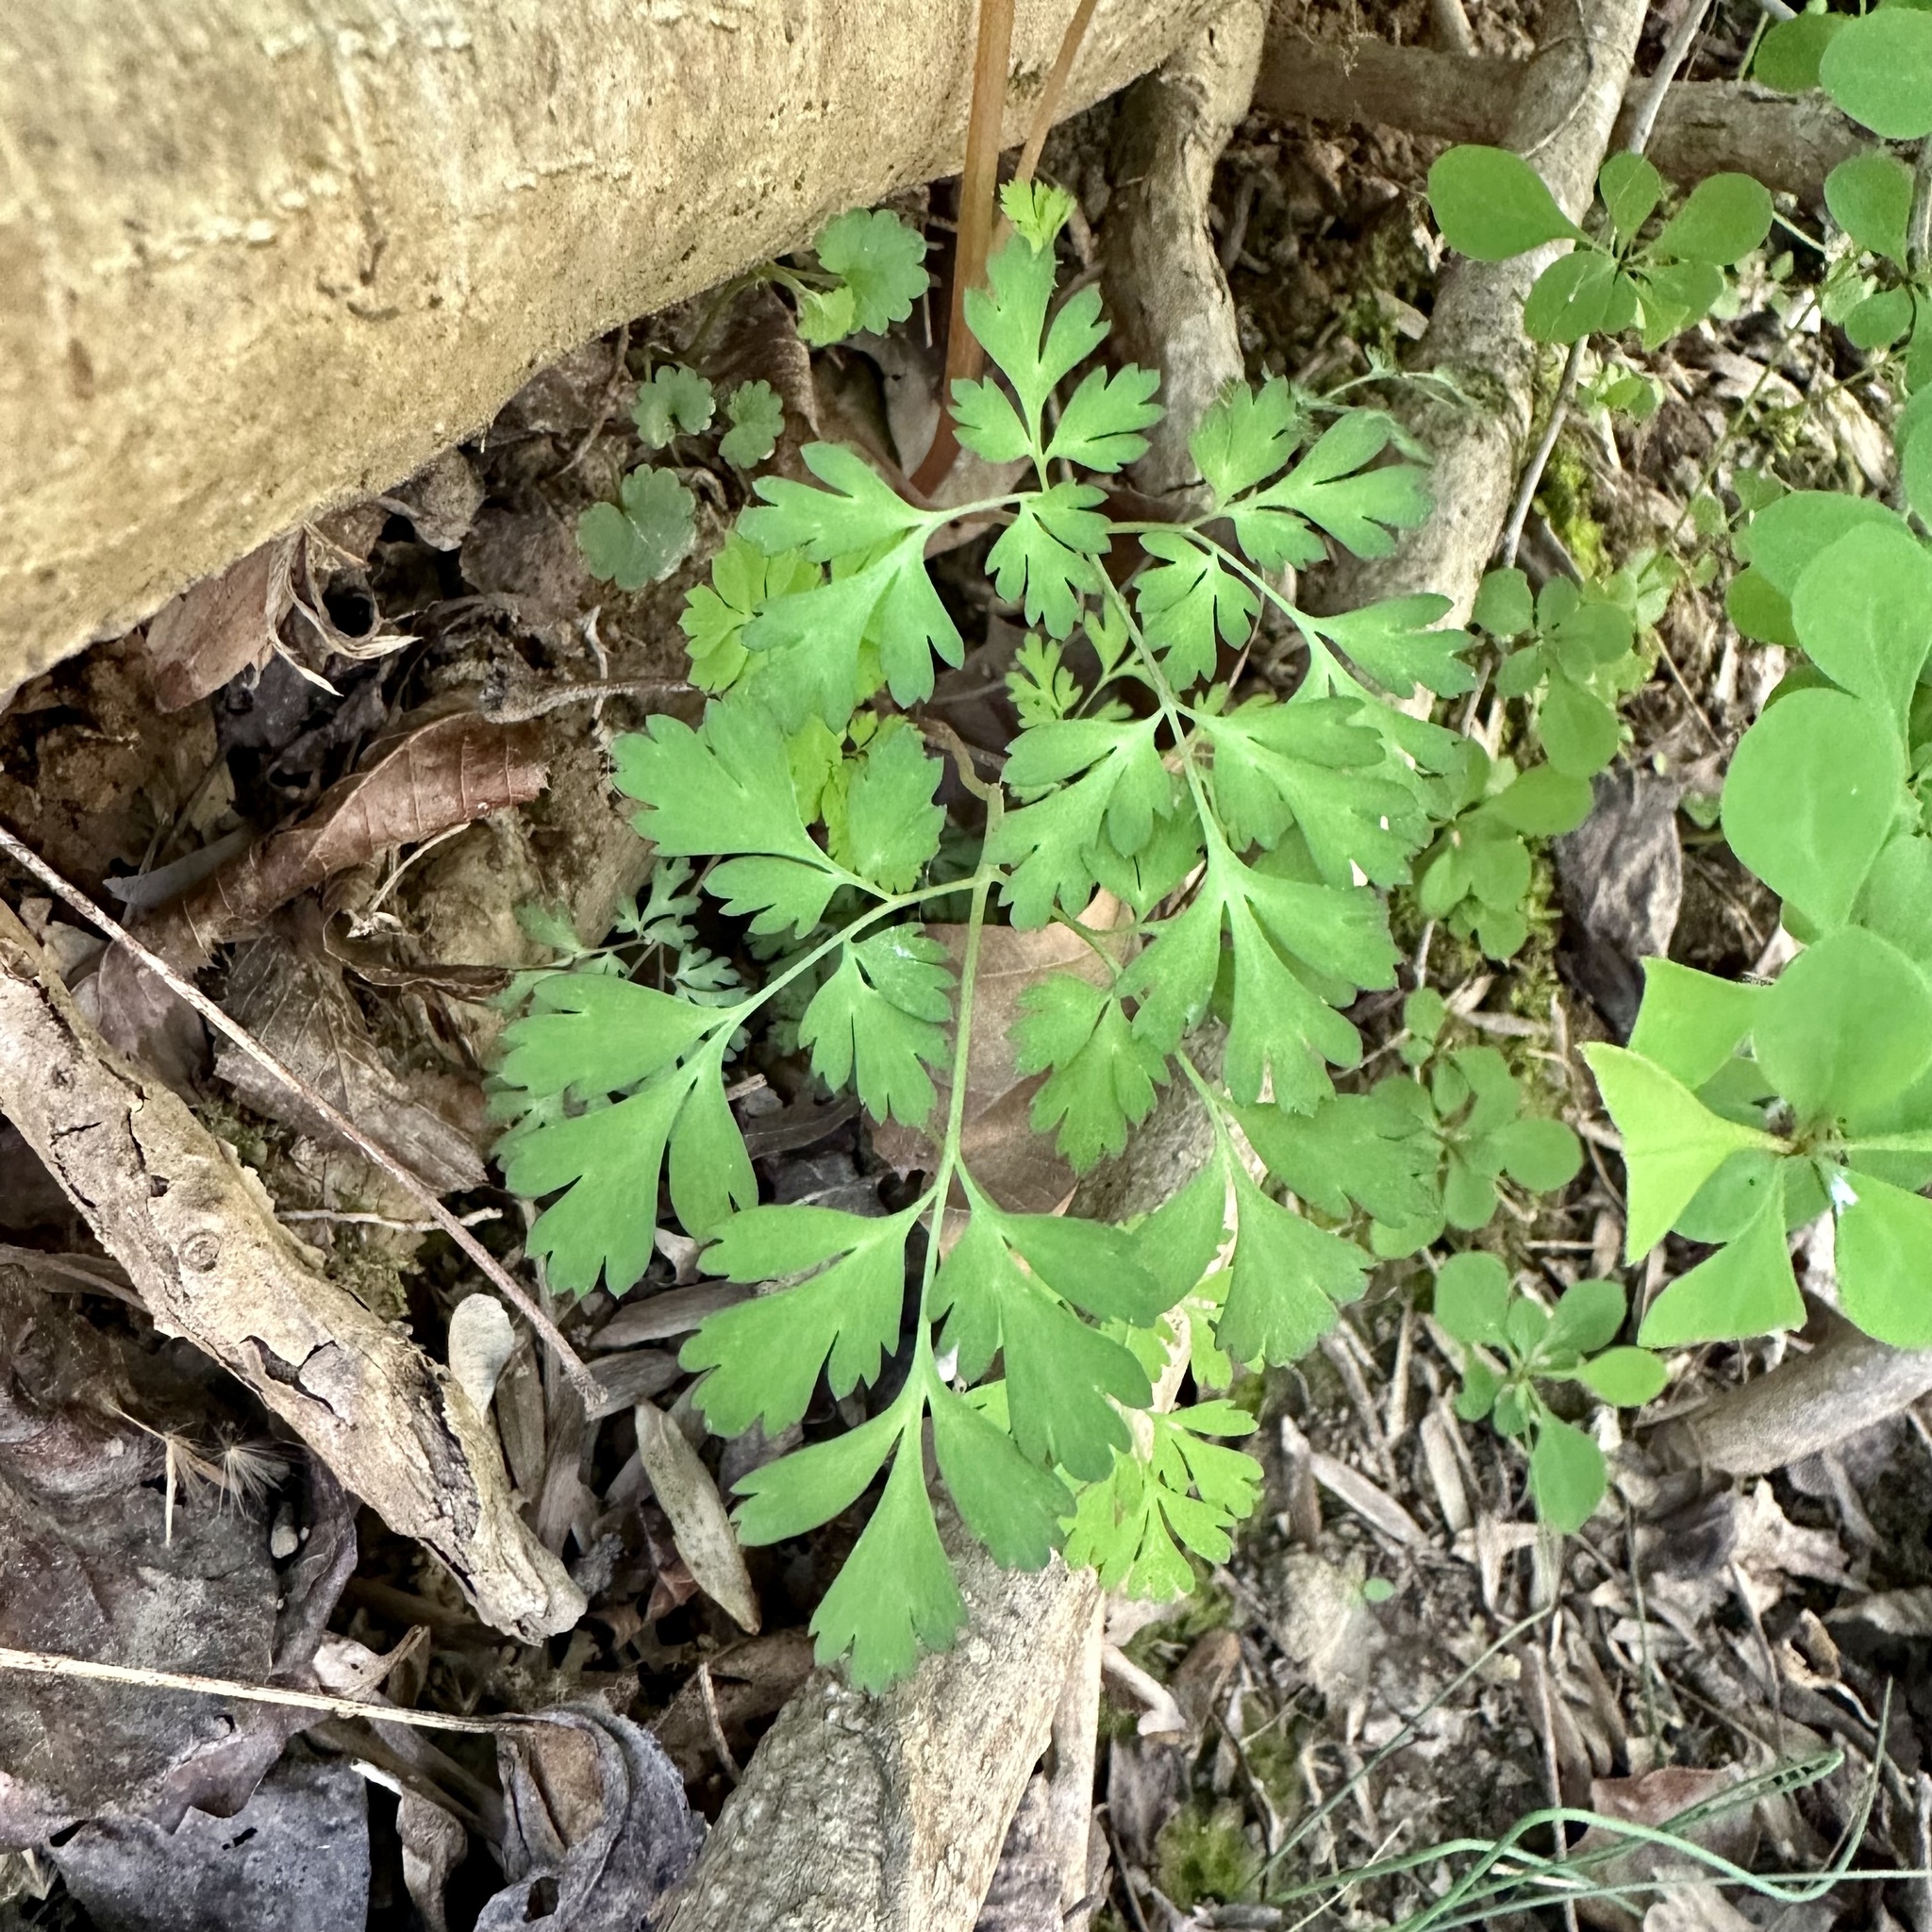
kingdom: Plantae
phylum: Tracheophyta
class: Magnoliopsida
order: Ranunculales
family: Papaveraceae
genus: Corydalis
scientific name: Corydalis incisa
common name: Incised fumewort
